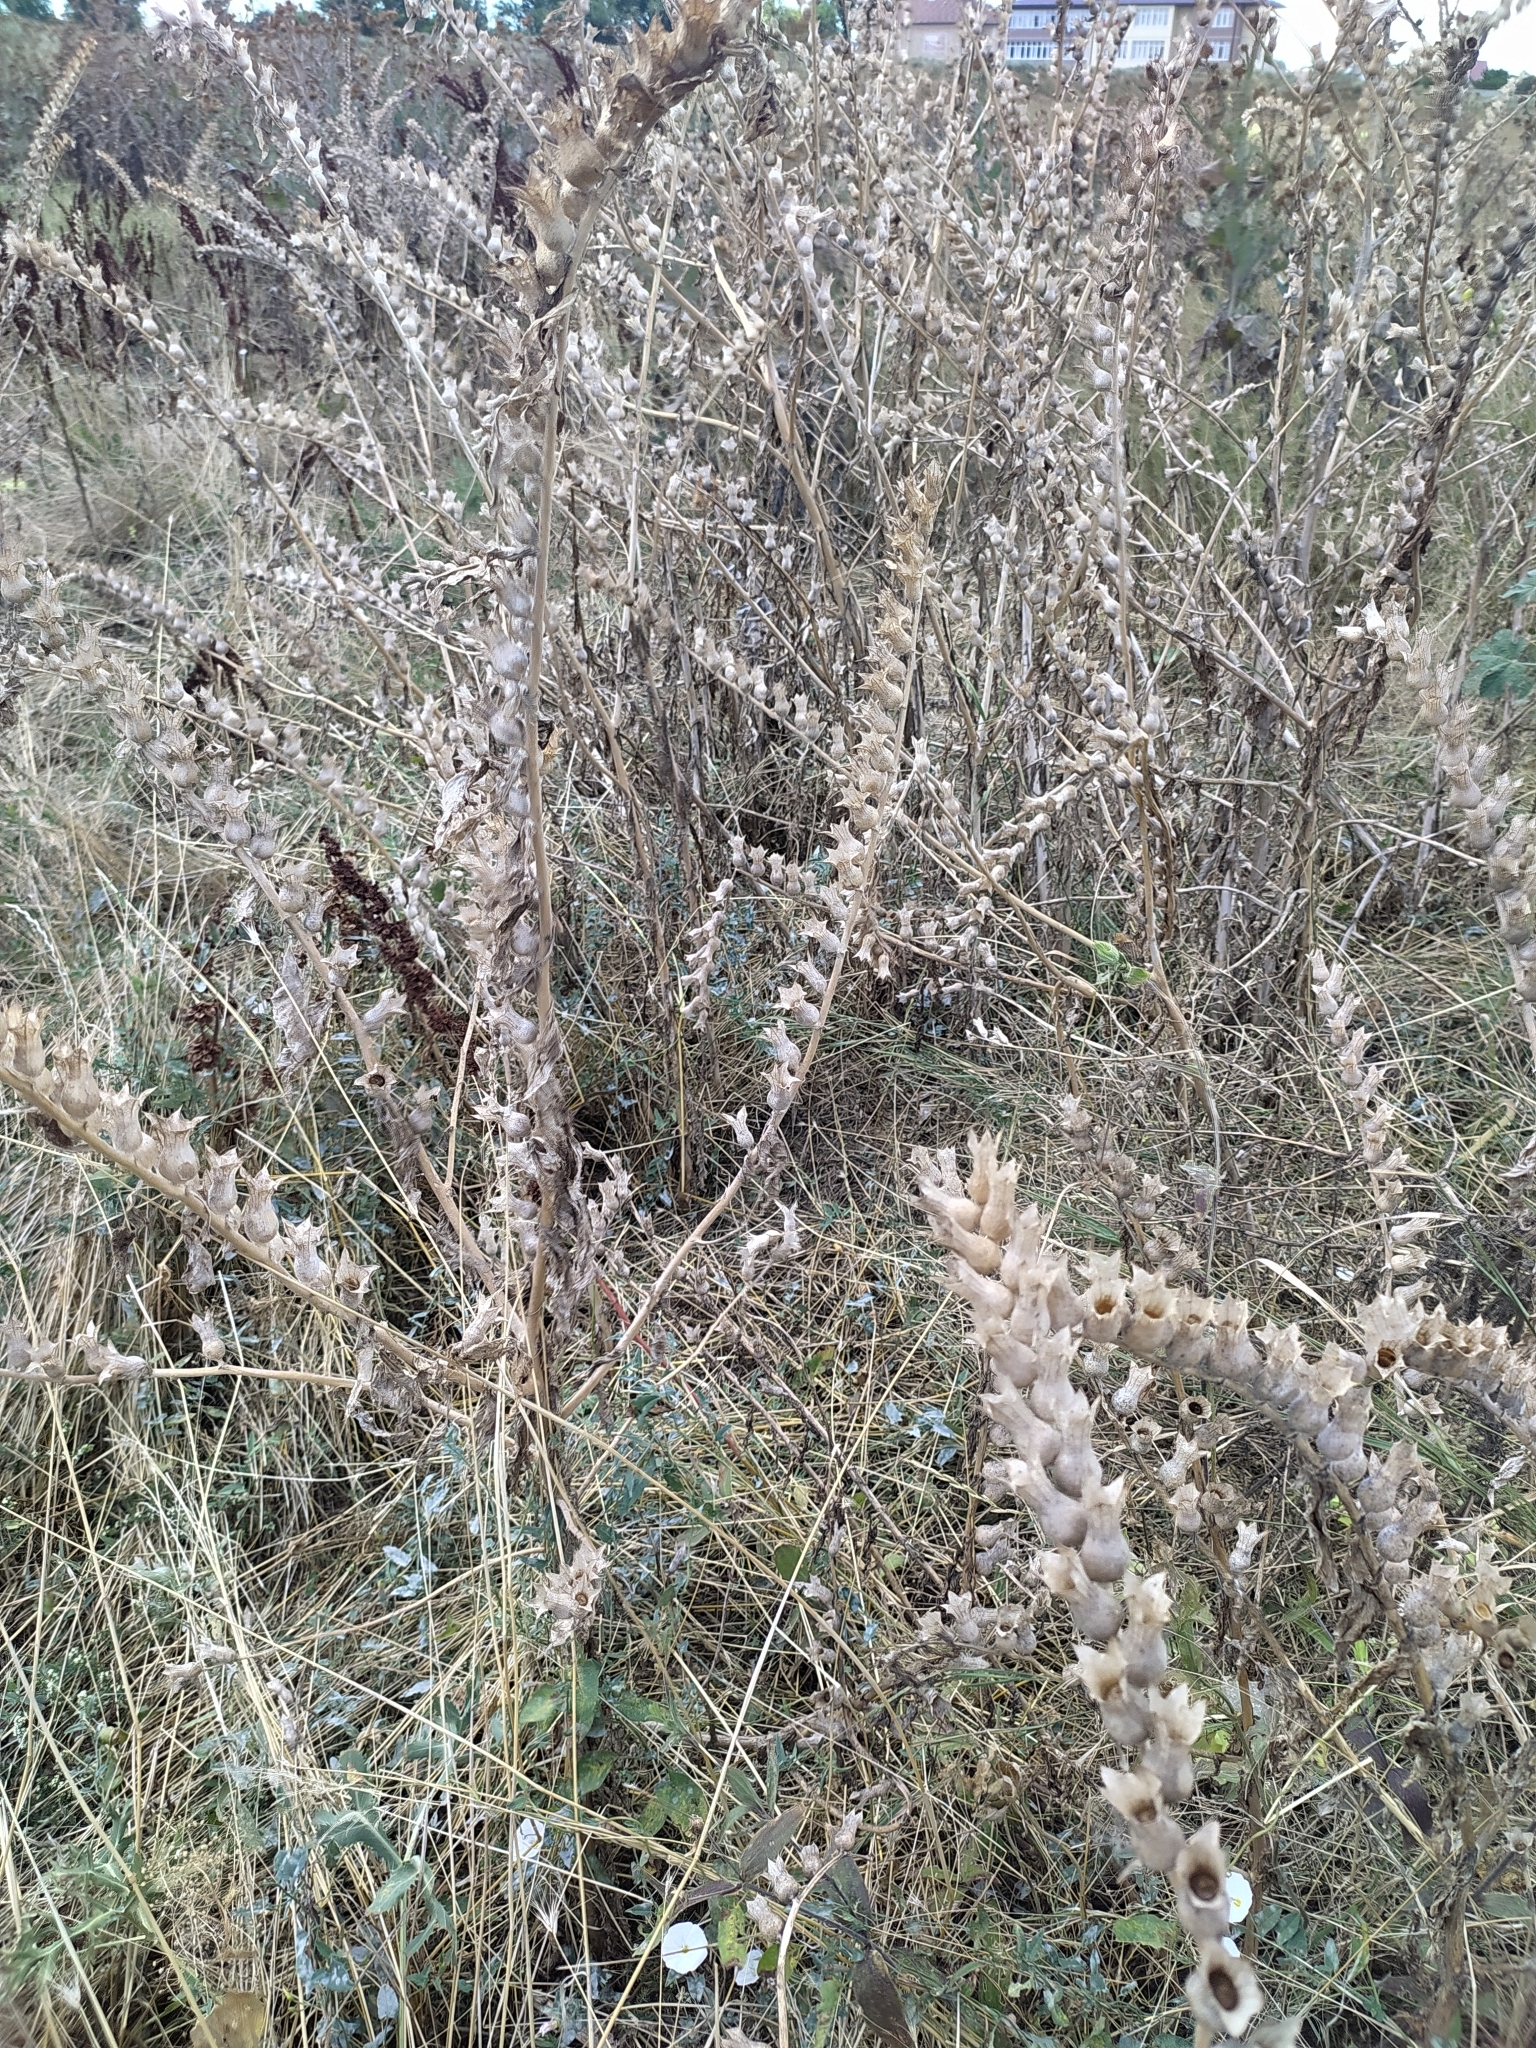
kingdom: Plantae
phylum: Tracheophyta
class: Magnoliopsida
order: Solanales
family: Solanaceae
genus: Hyoscyamus
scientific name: Hyoscyamus niger
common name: Henbane
